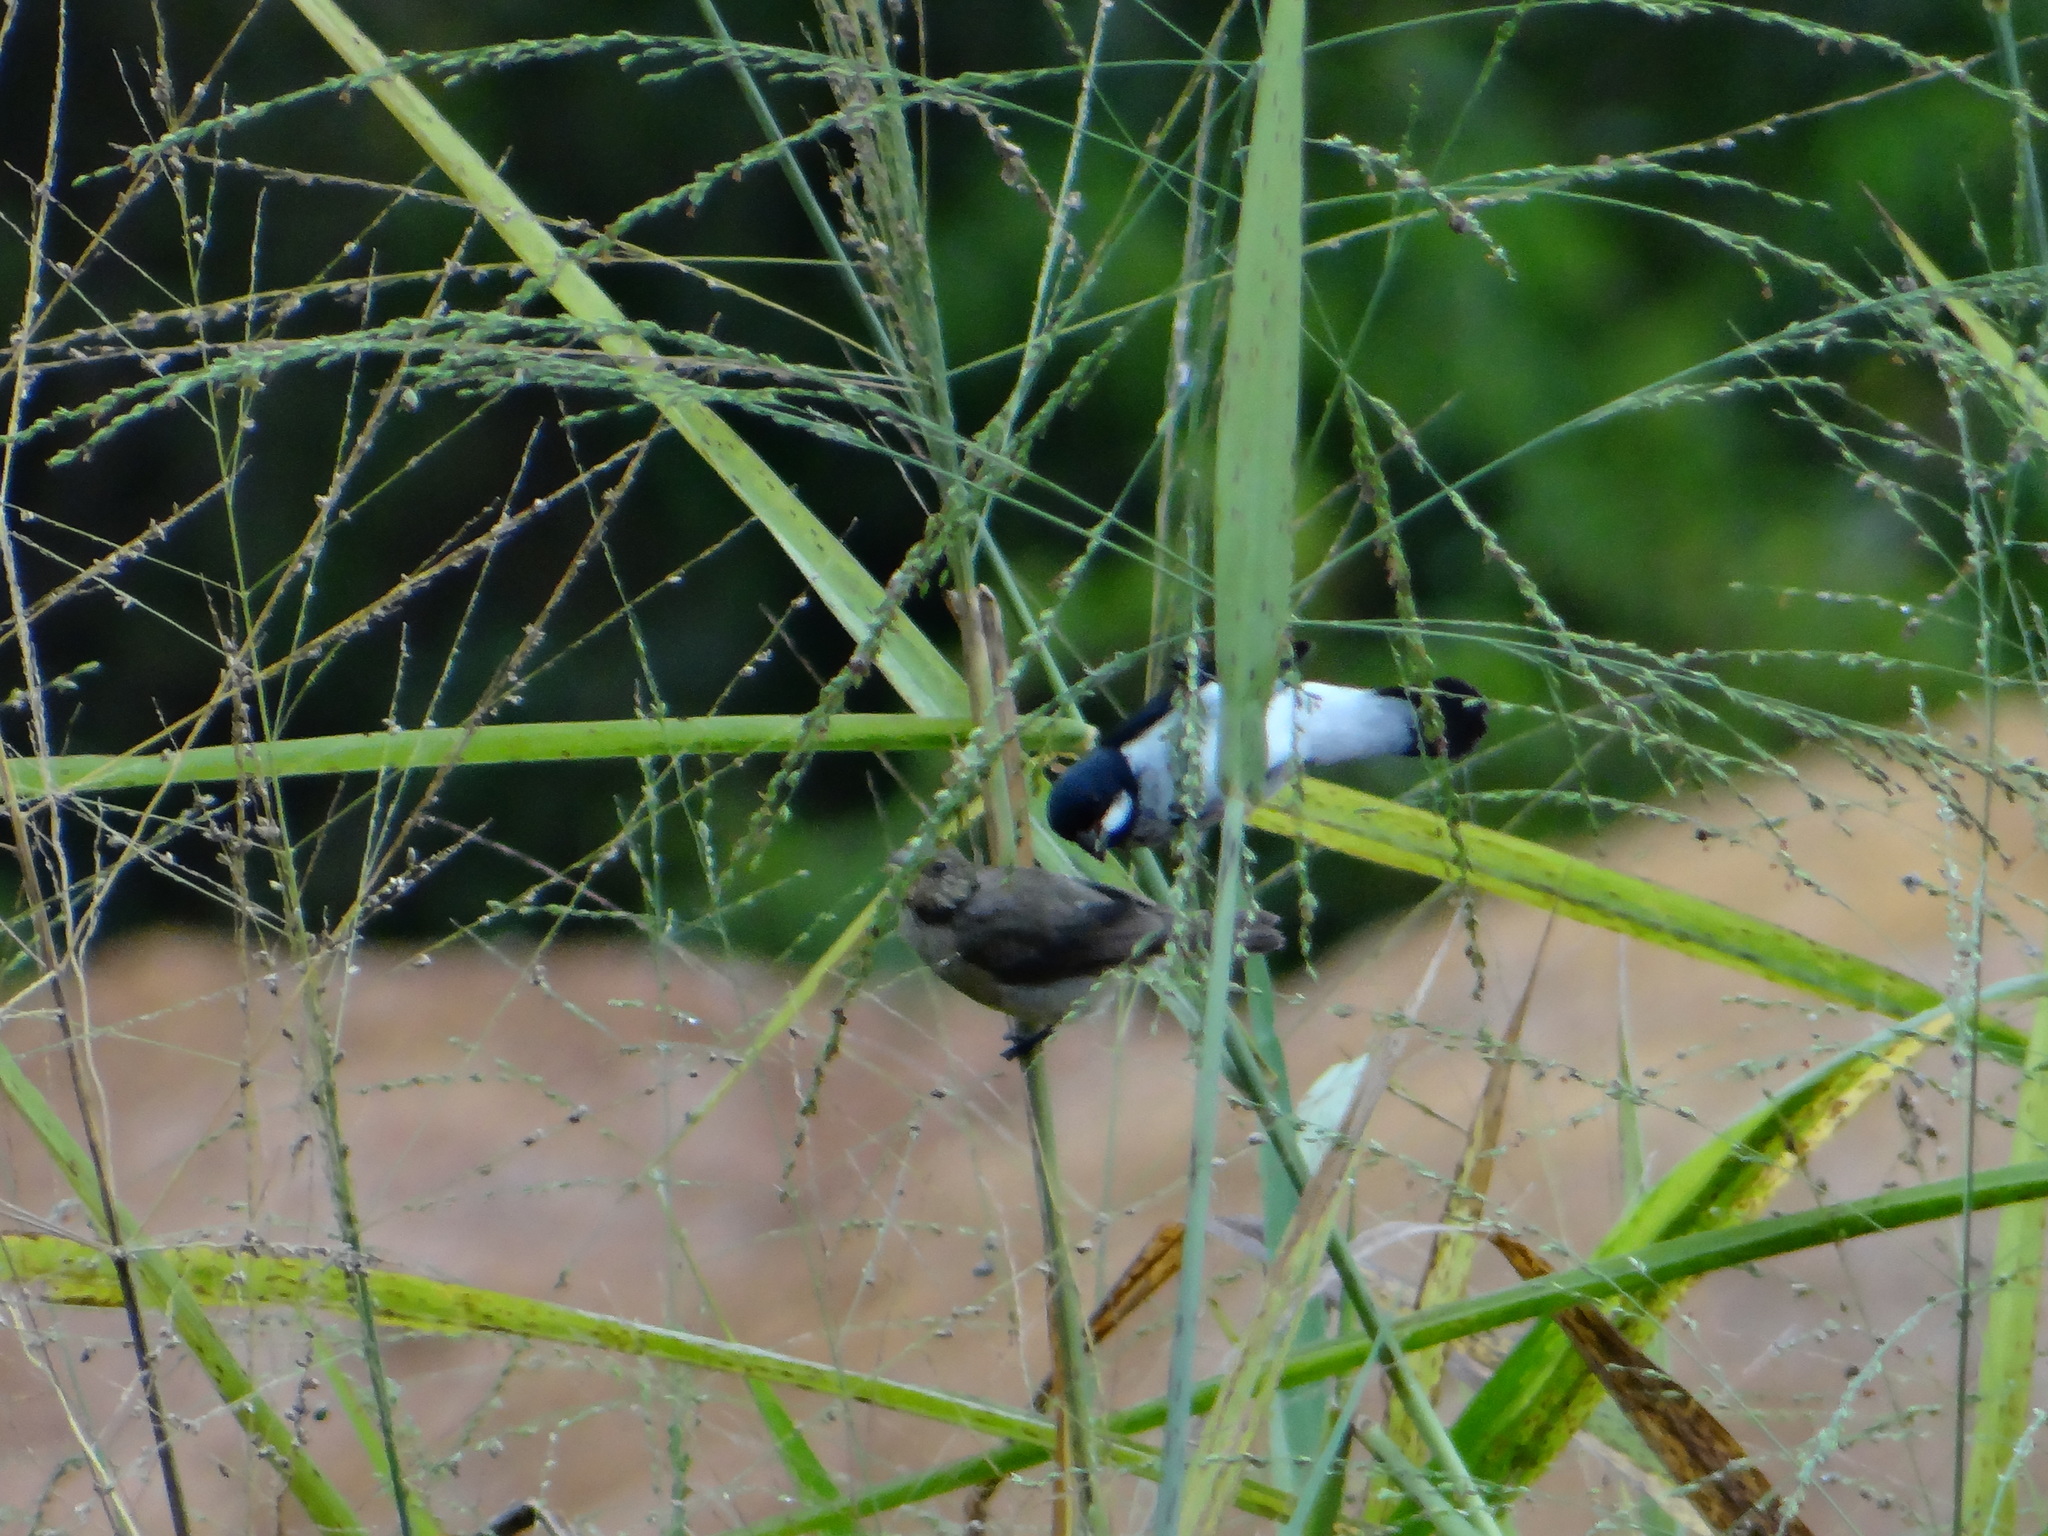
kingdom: Animalia
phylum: Chordata
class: Aves
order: Passeriformes
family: Thraupidae
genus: Sporophila
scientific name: Sporophila bouvronides
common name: Lesson's seedeater
